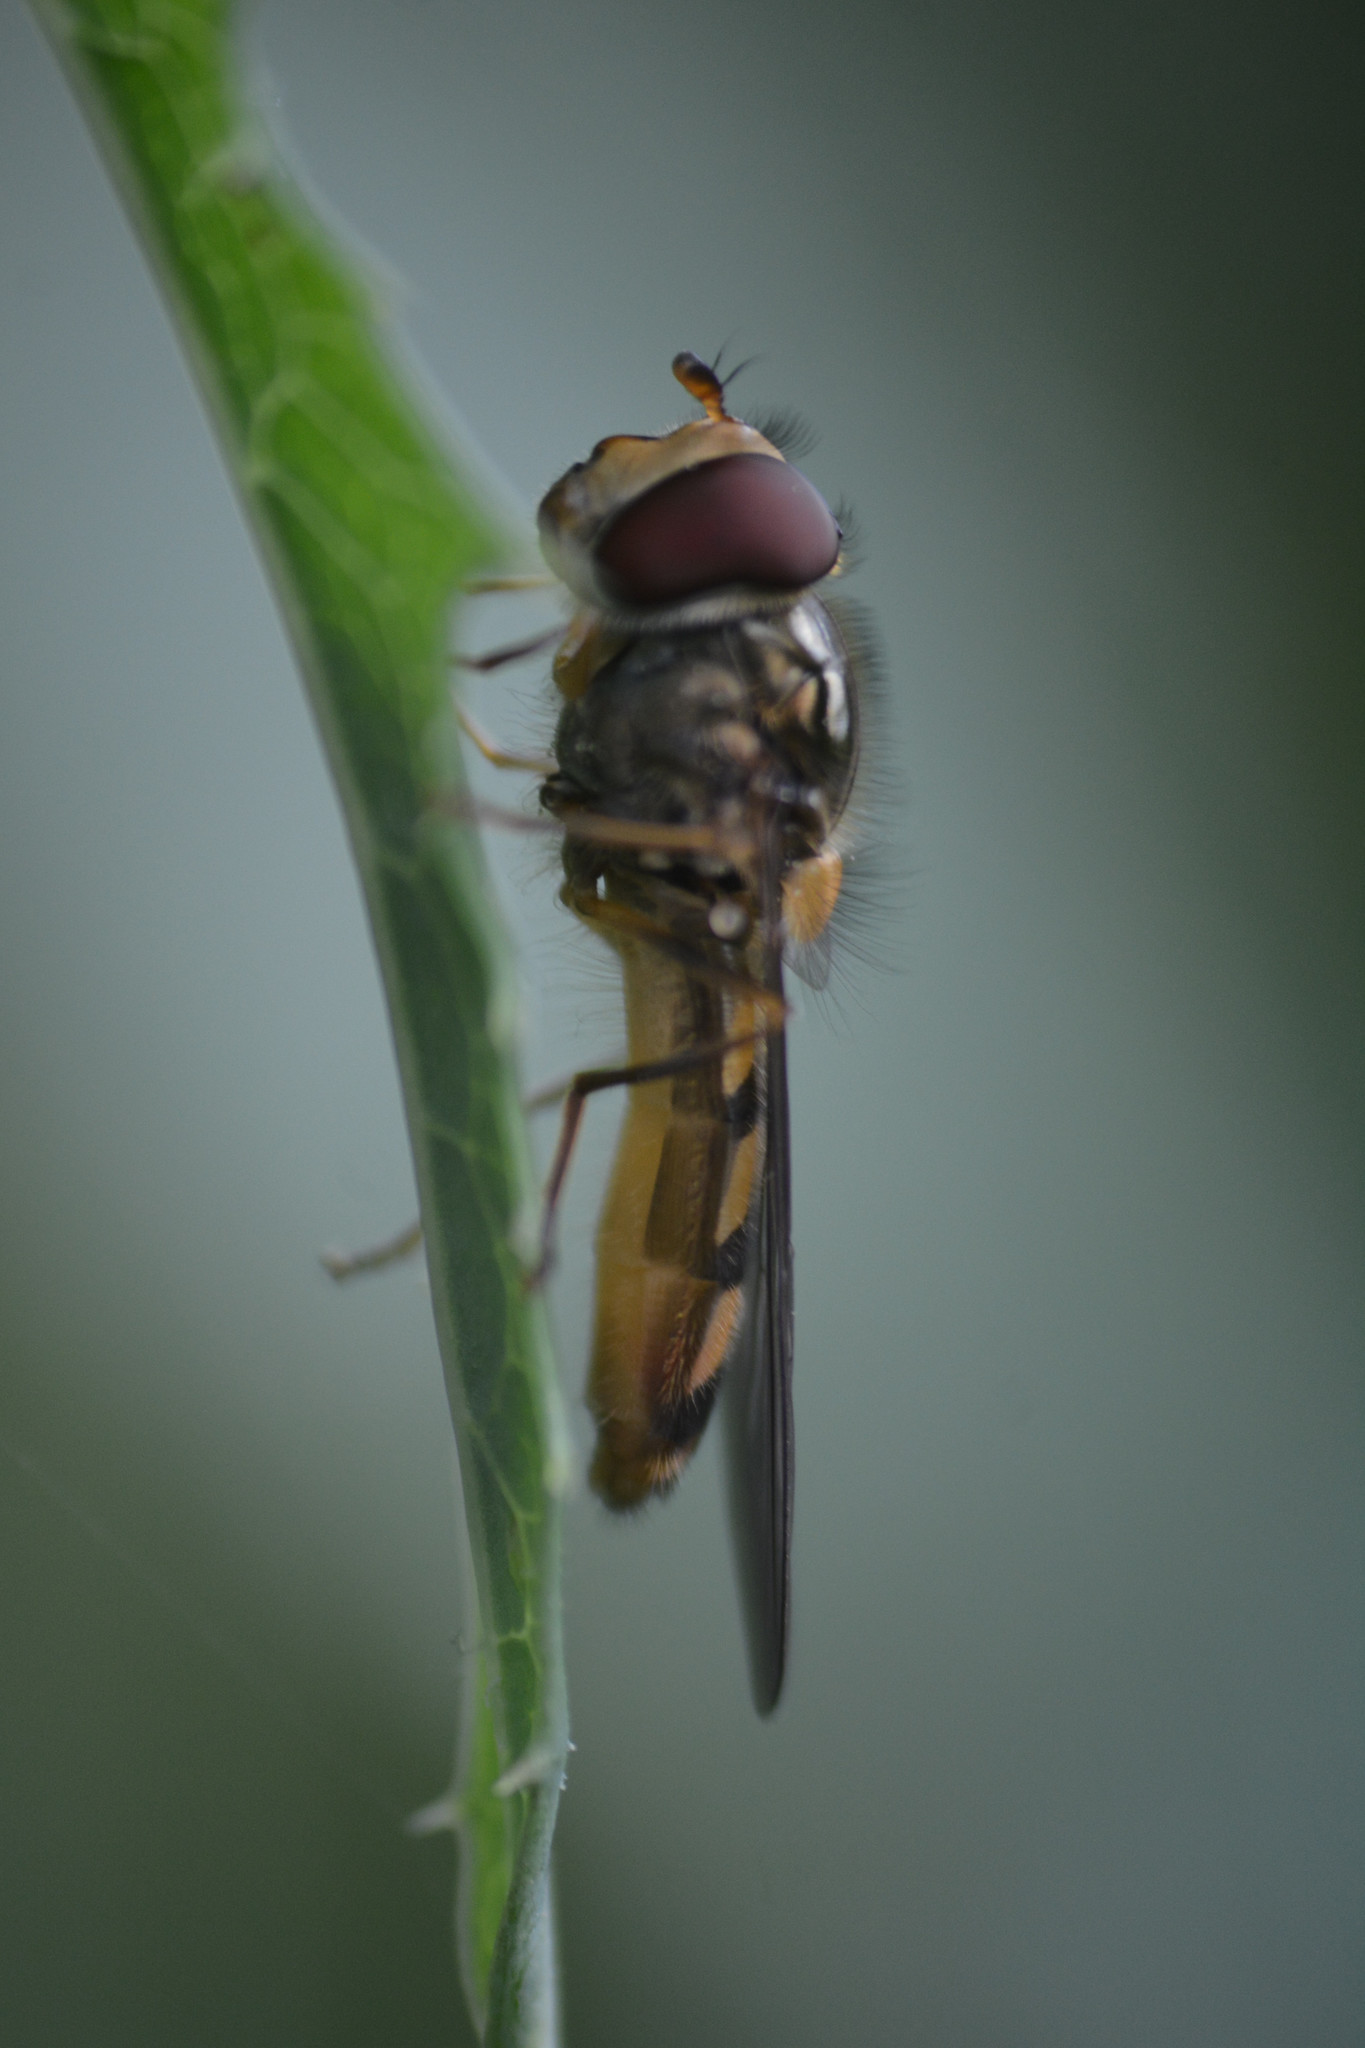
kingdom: Animalia
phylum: Arthropoda
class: Insecta
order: Diptera
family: Syrphidae
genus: Meliscaeva
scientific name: Meliscaeva auricollis
